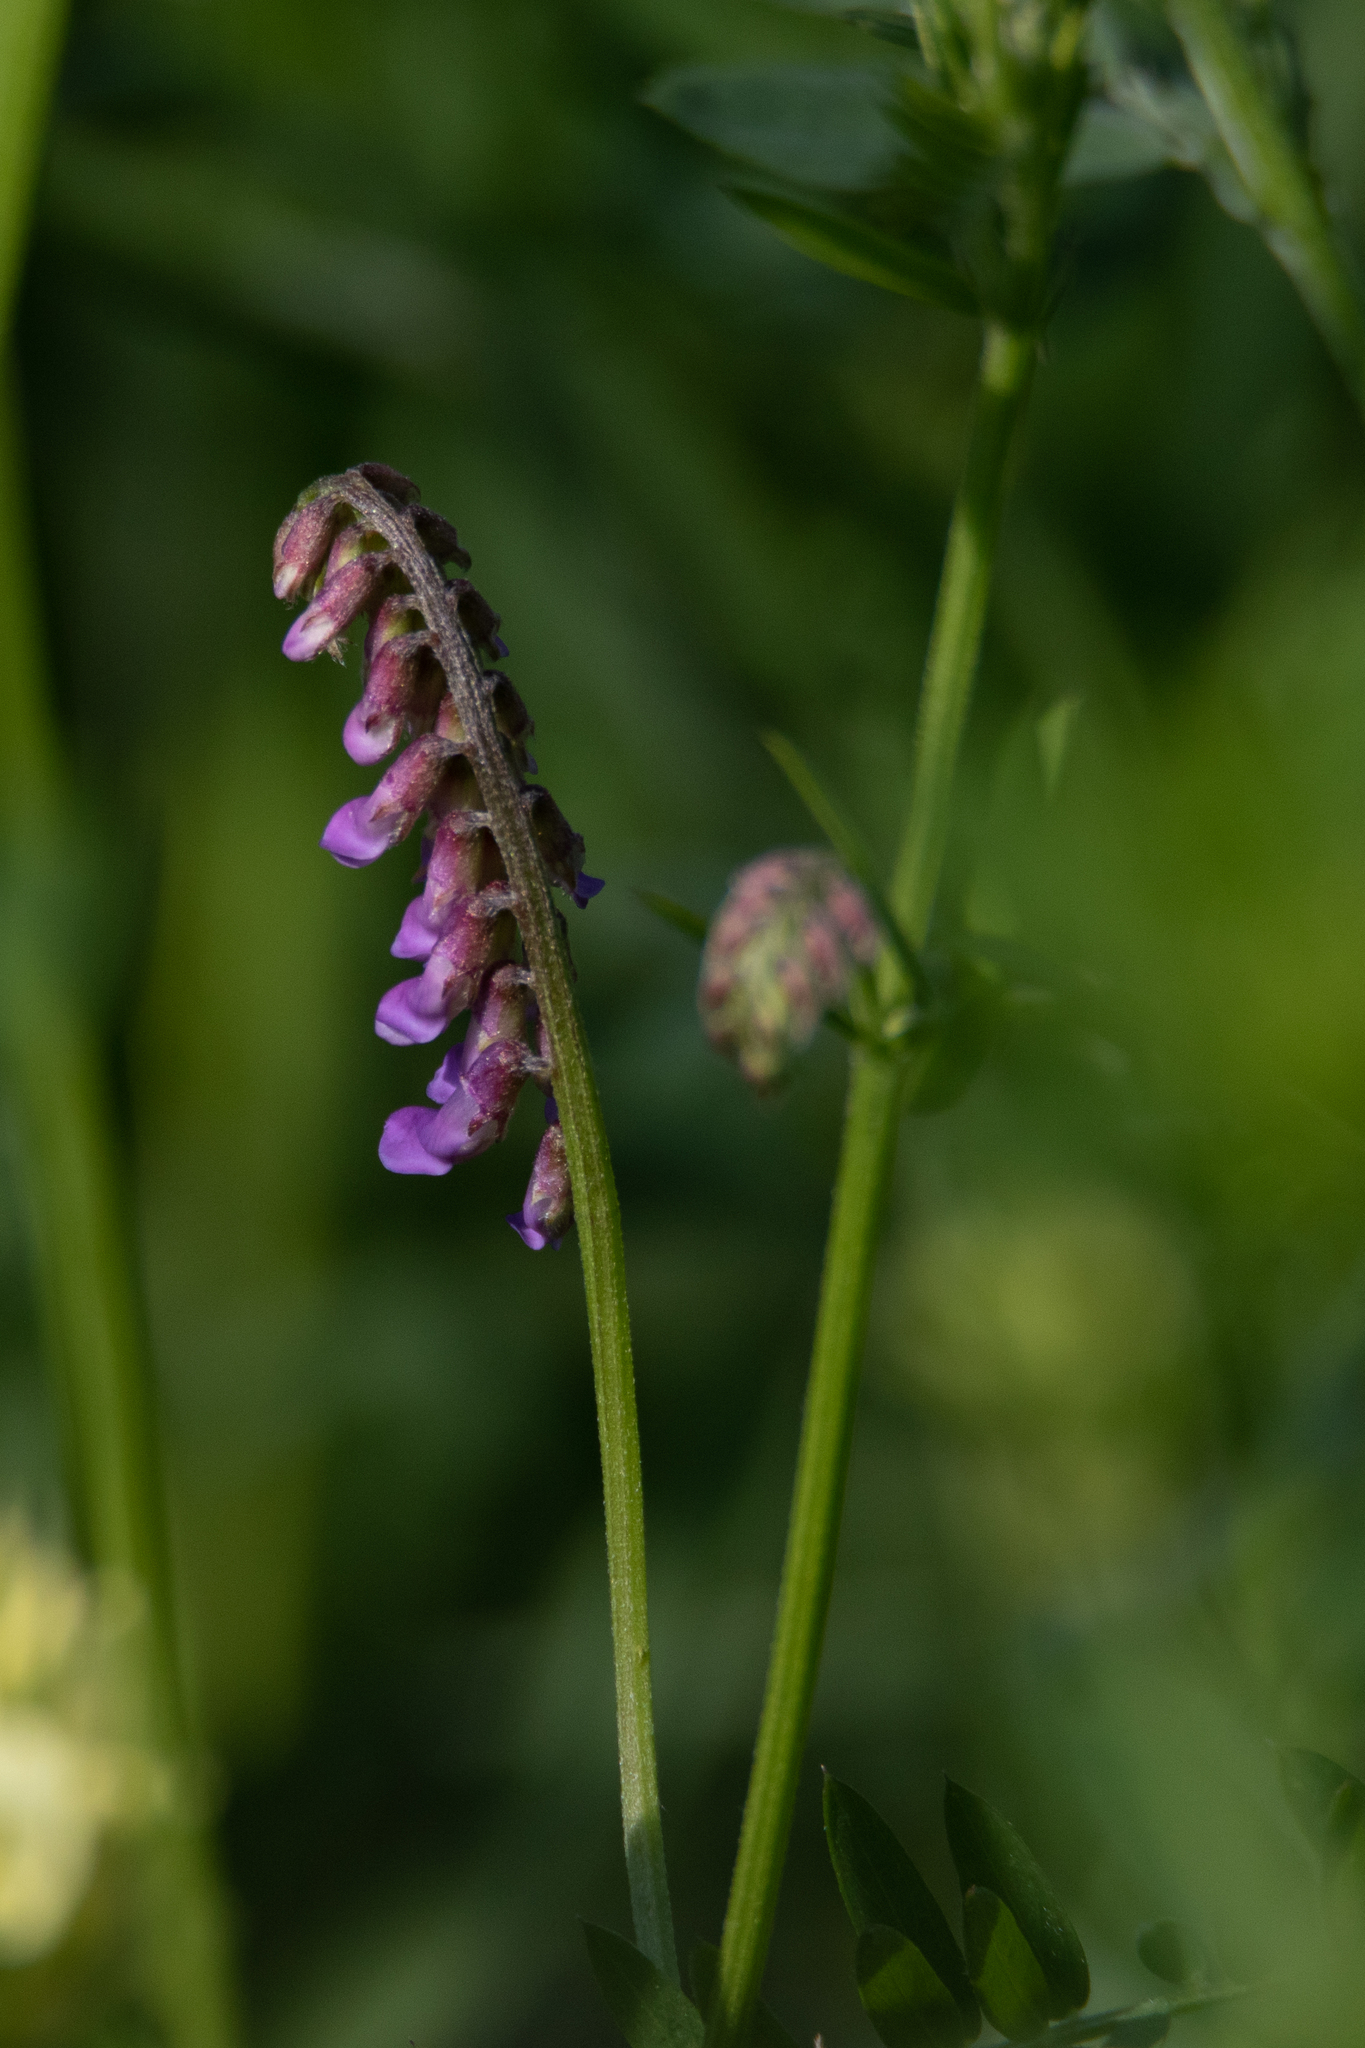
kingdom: Plantae
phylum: Tracheophyta
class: Magnoliopsida
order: Fabales
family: Fabaceae
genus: Vicia
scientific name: Vicia cracca
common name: Bird vetch
